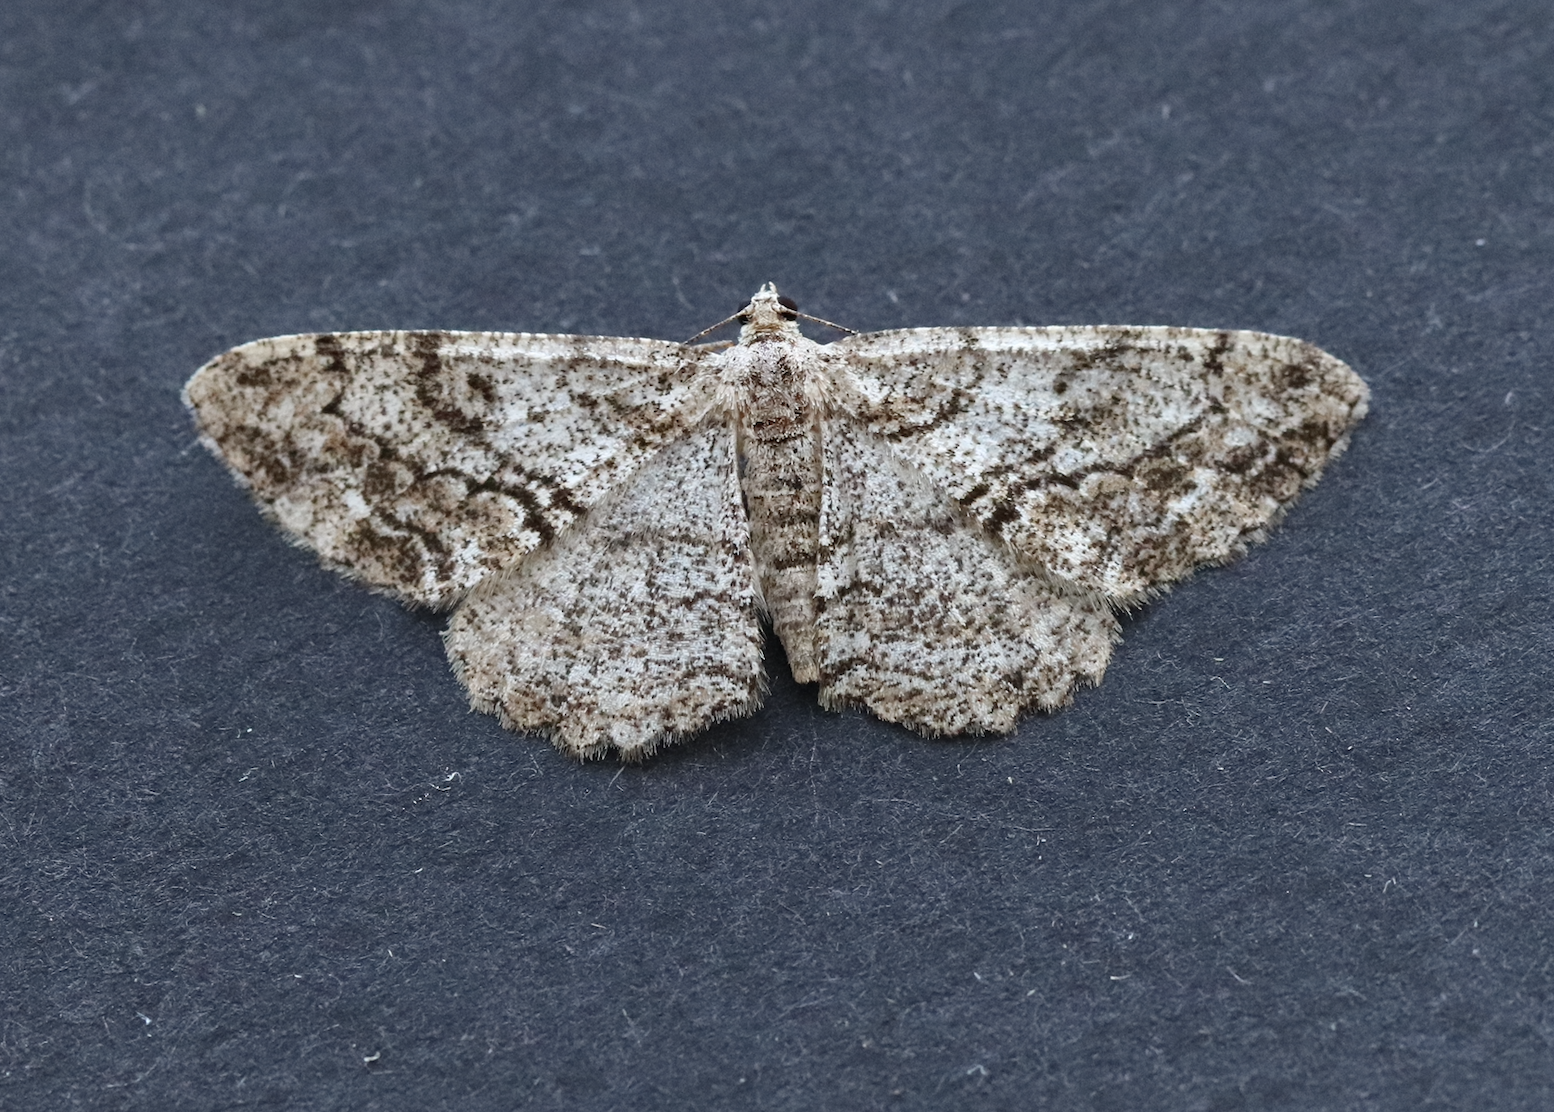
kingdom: Animalia
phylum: Arthropoda
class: Insecta
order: Lepidoptera
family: Geometridae
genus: Peribatodes
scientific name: Peribatodes secundaria
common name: Feathered beauty
